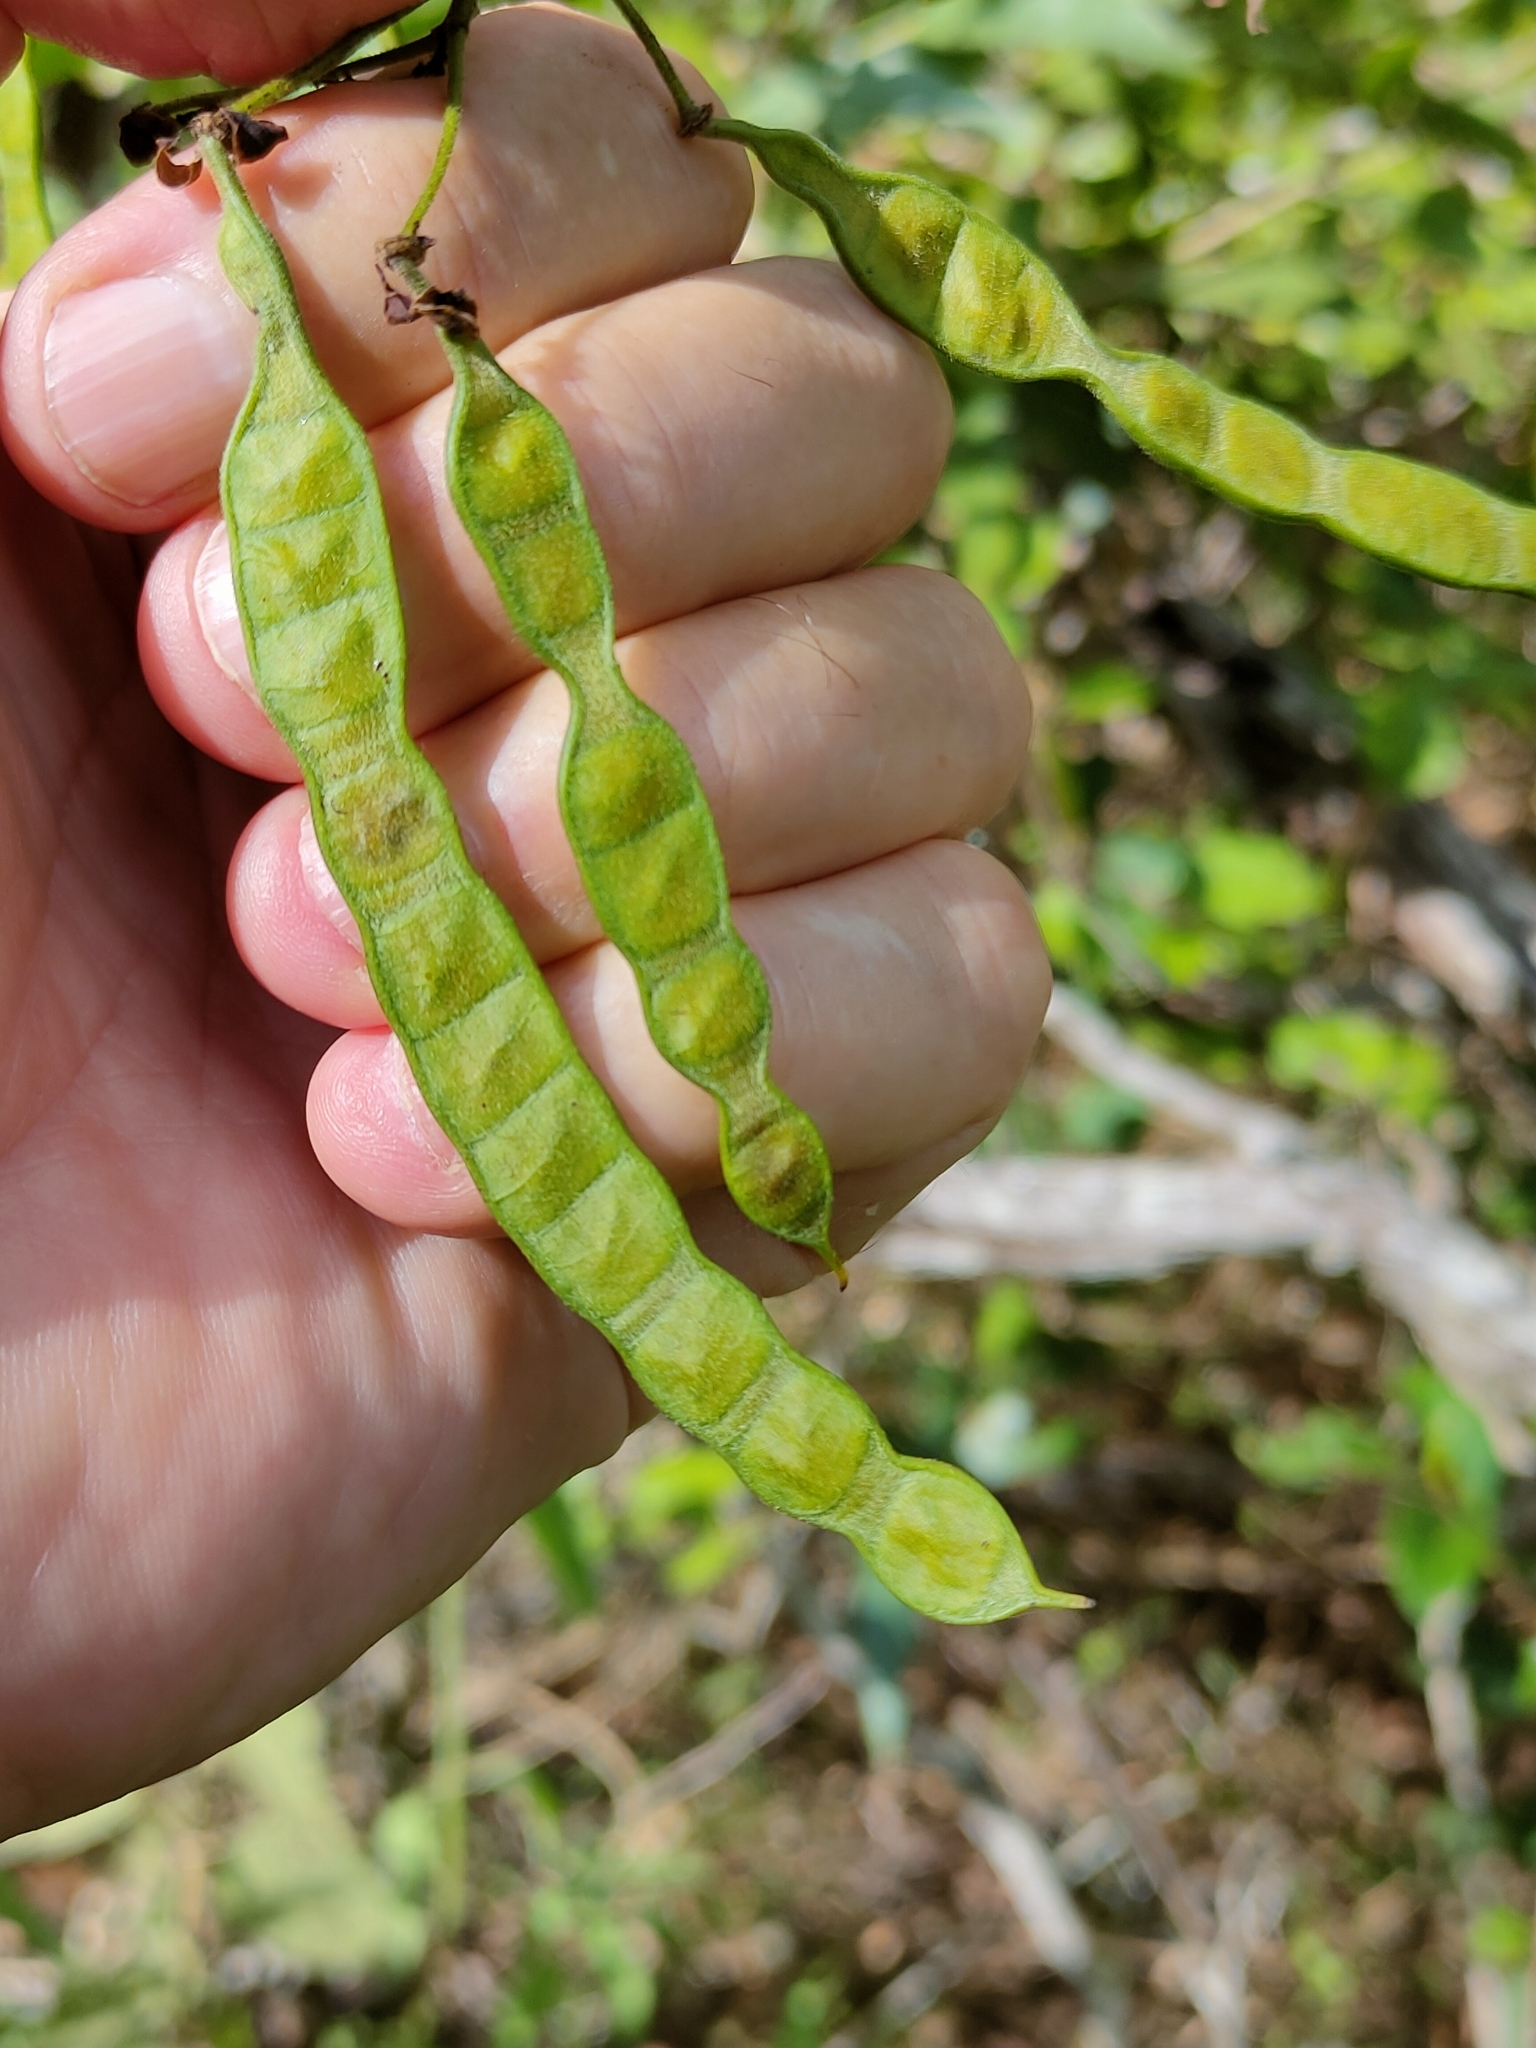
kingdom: Plantae
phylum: Tracheophyta
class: Magnoliopsida
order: Fabales
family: Fabaceae
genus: Senna
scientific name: Senna gaudichaudii
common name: Climbing cassia
